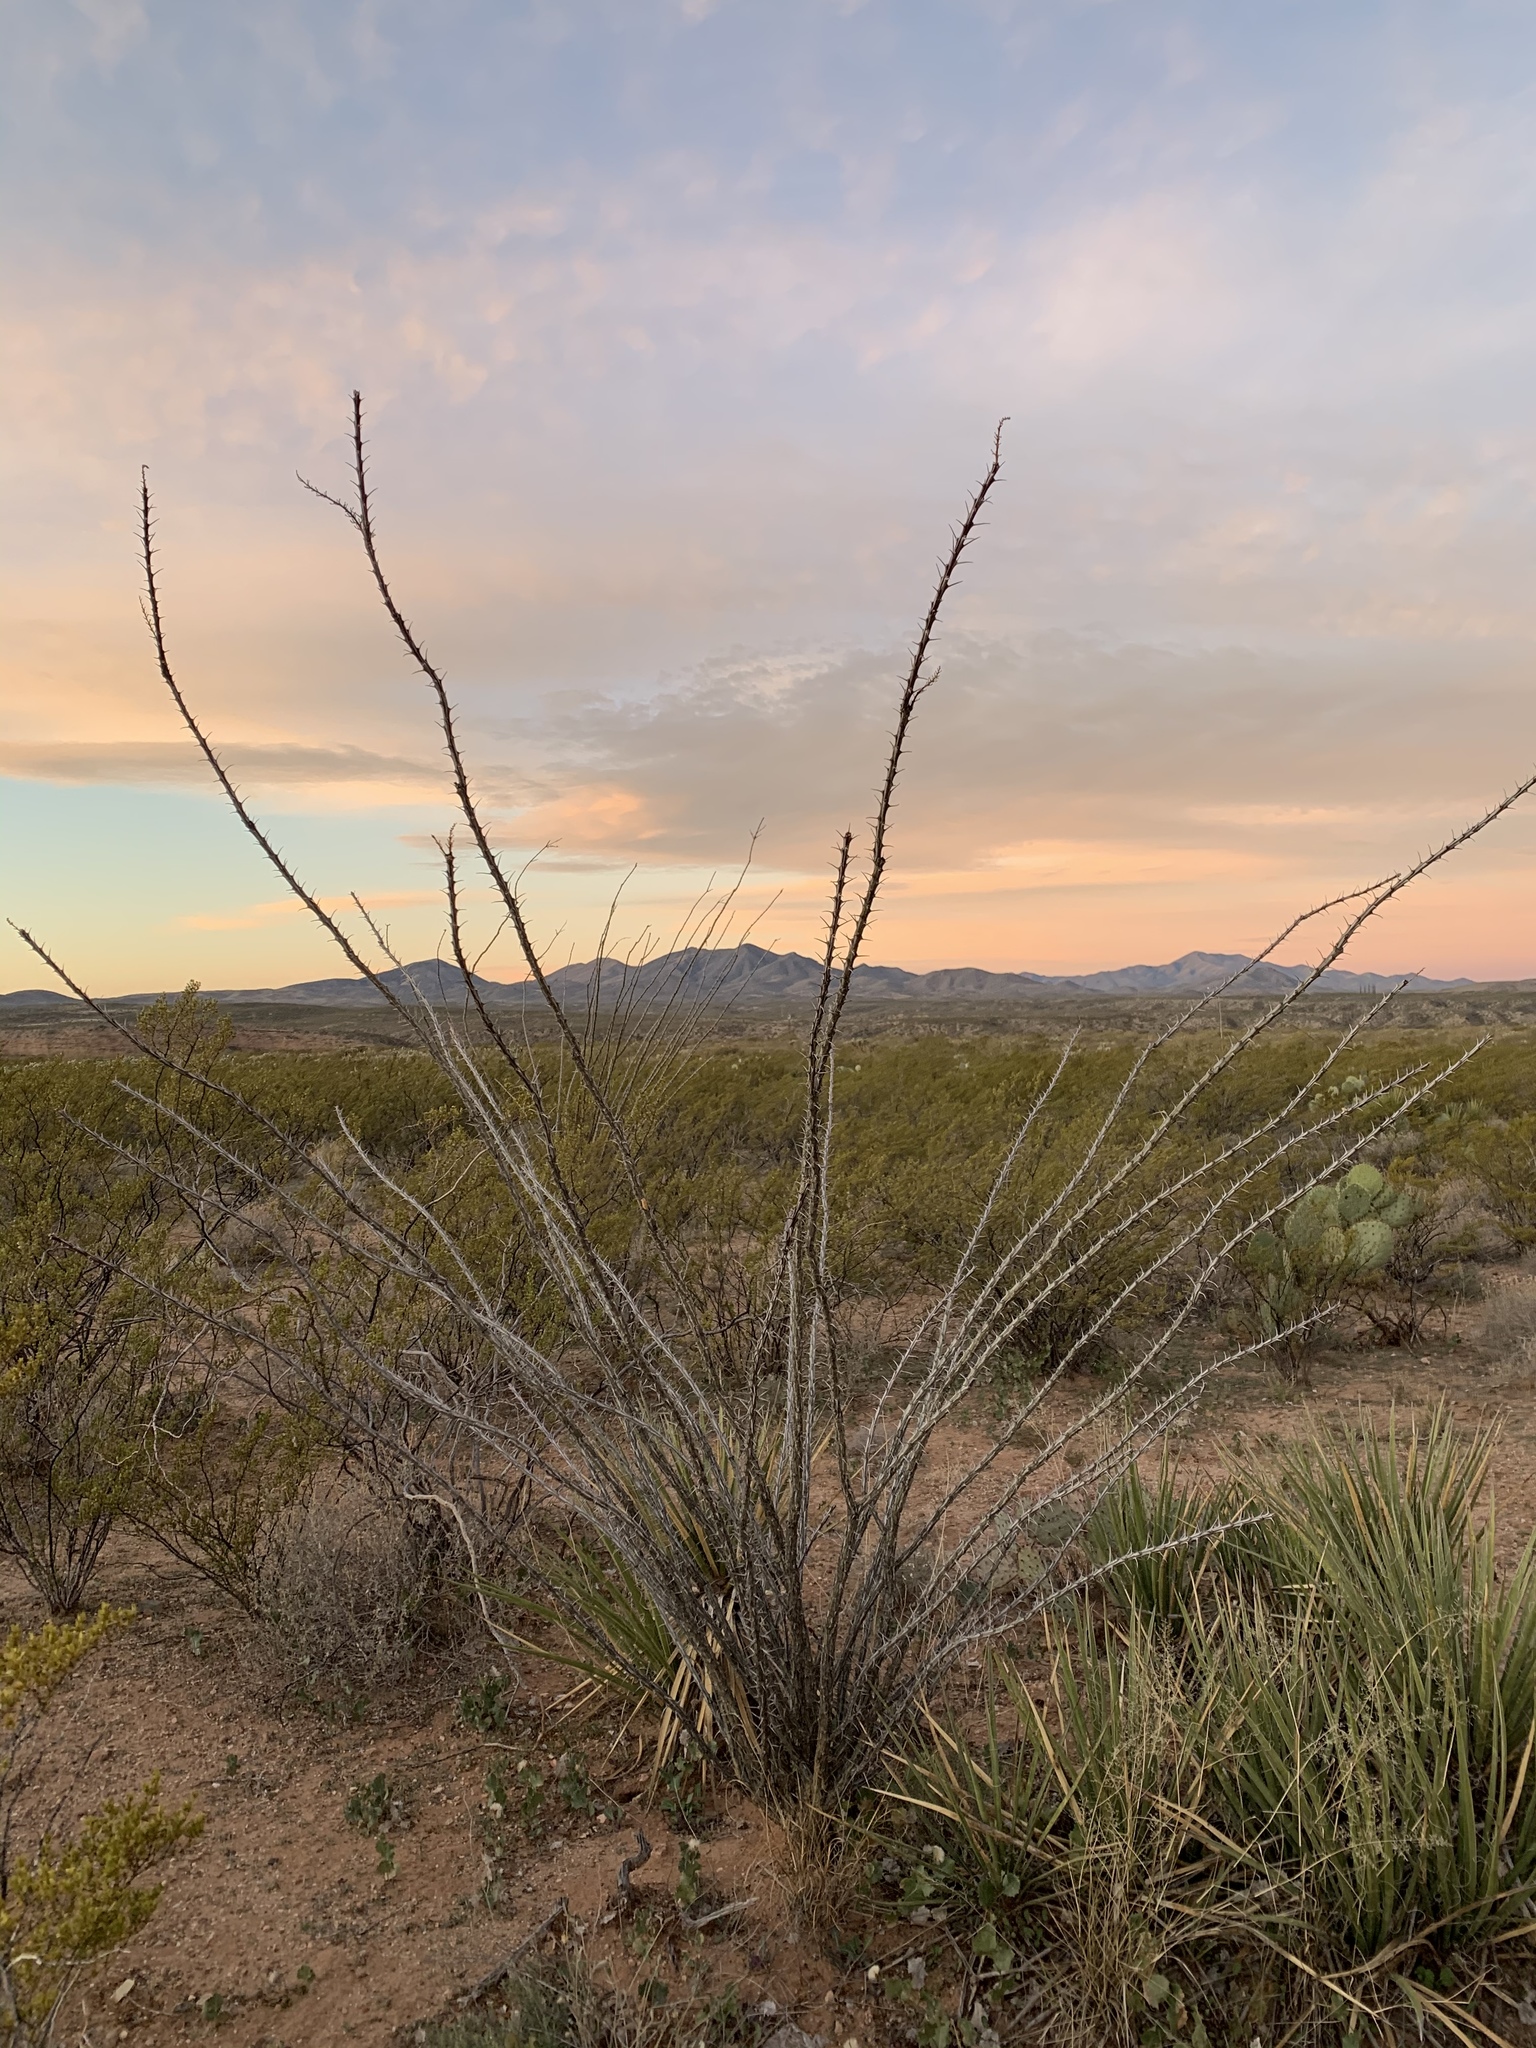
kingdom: Plantae
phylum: Tracheophyta
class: Magnoliopsida
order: Ericales
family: Fouquieriaceae
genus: Fouquieria
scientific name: Fouquieria splendens
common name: Vine-cactus
